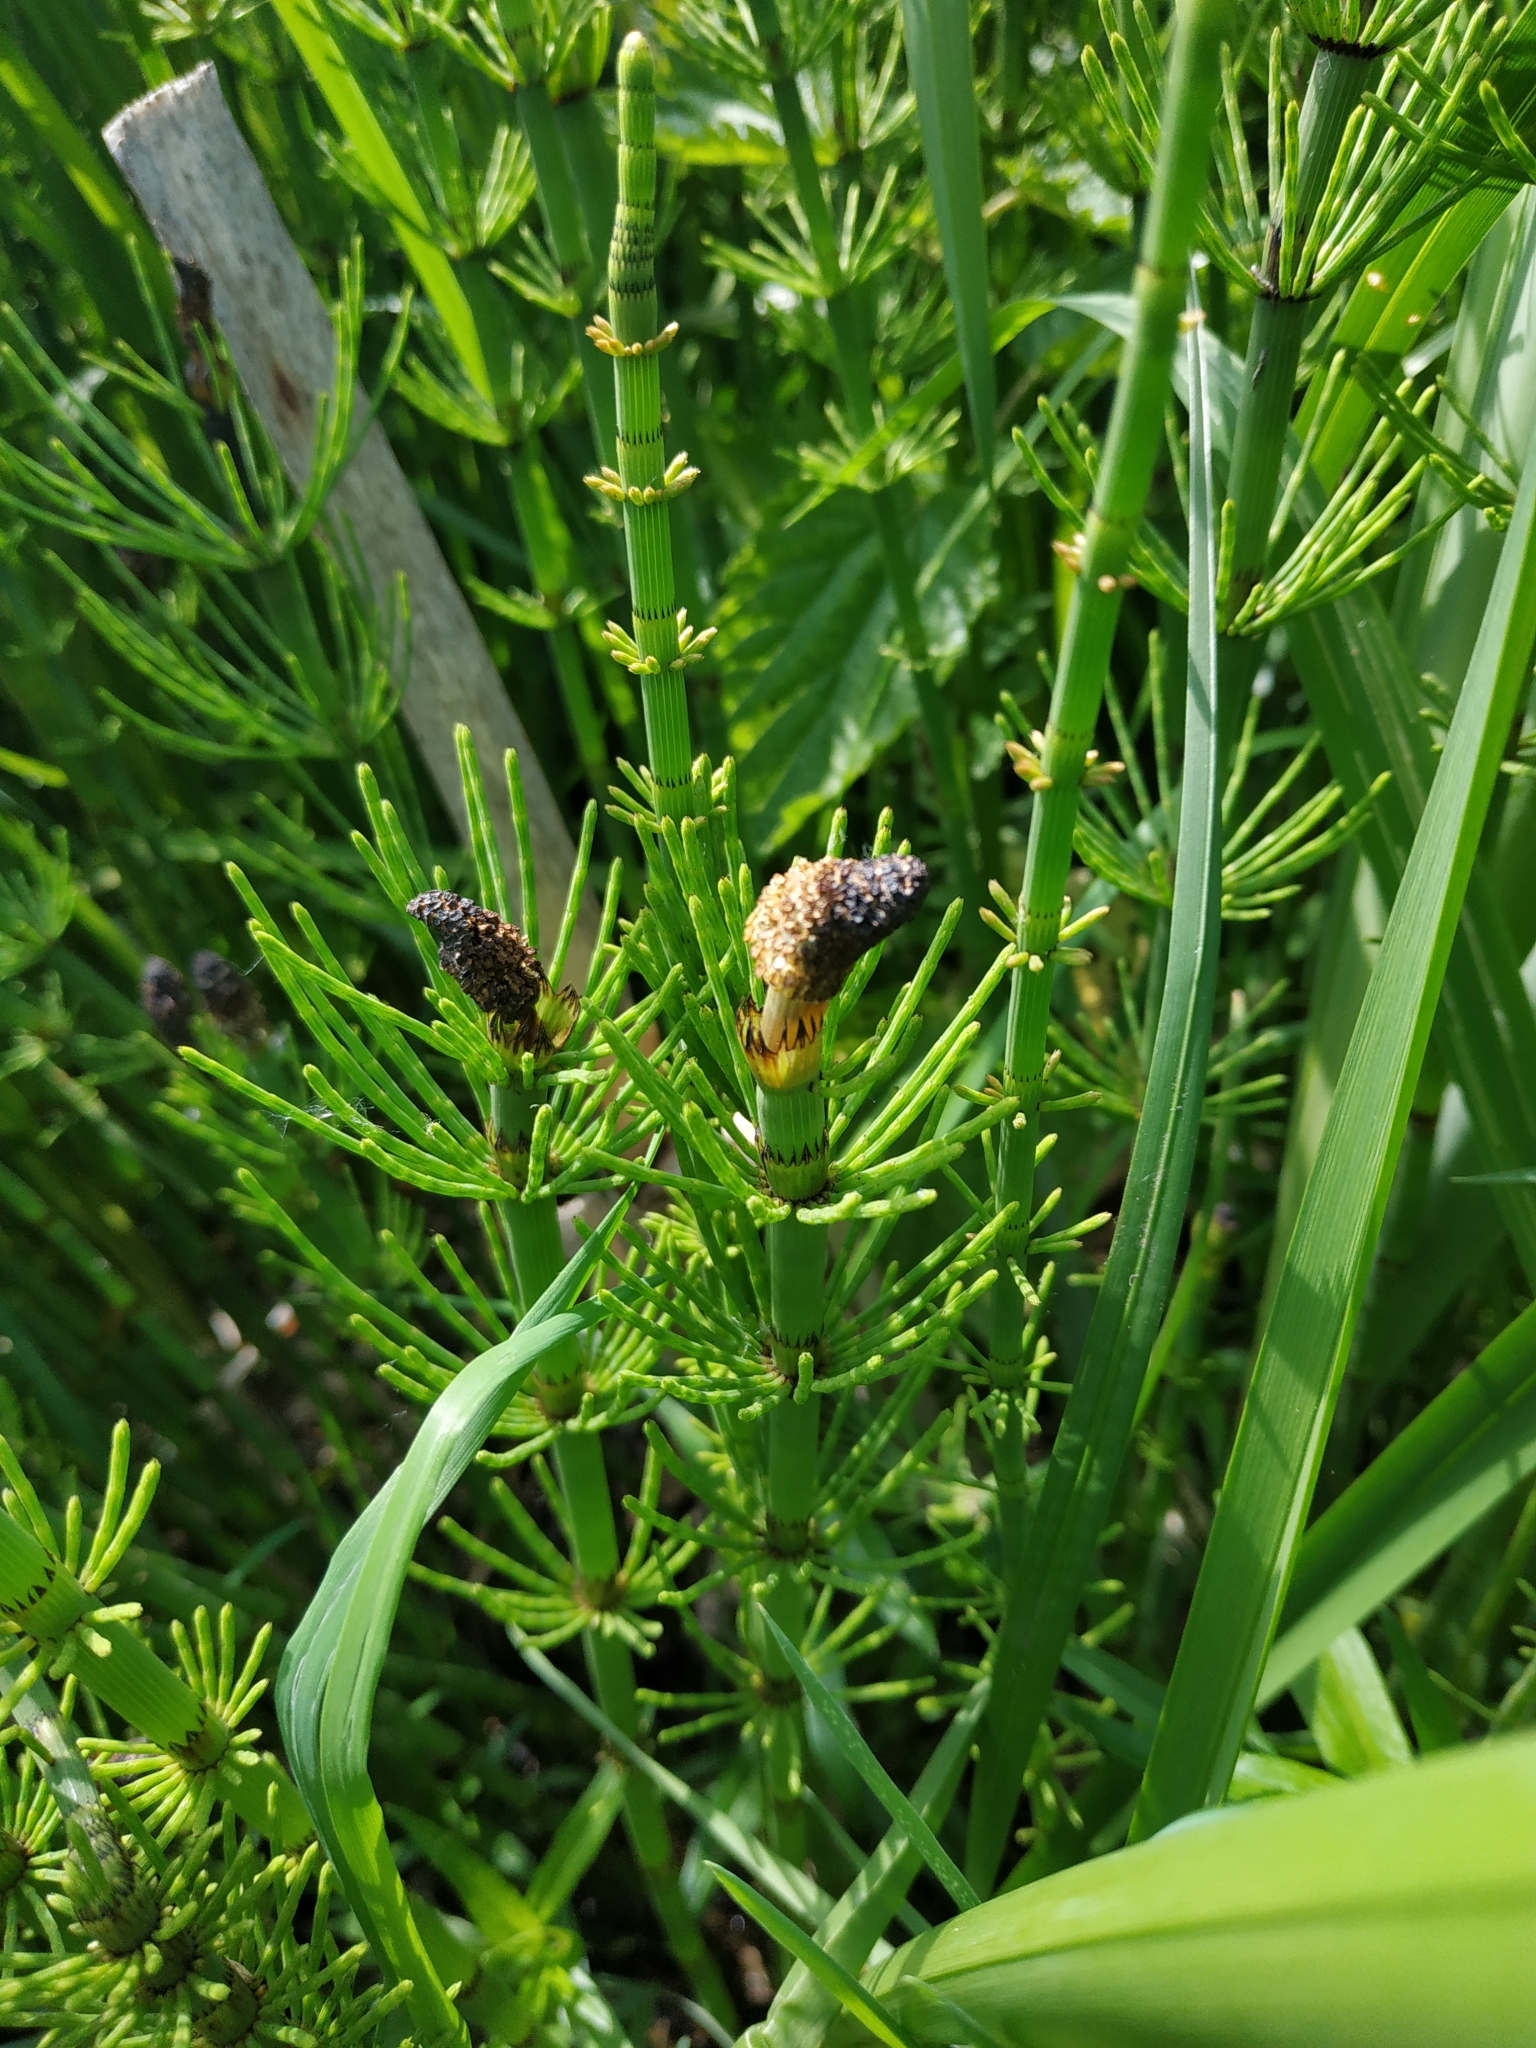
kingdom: Plantae
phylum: Tracheophyta
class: Polypodiopsida
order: Equisetales
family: Equisetaceae
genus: Equisetum
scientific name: Equisetum fluviatile
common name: Water horsetail
